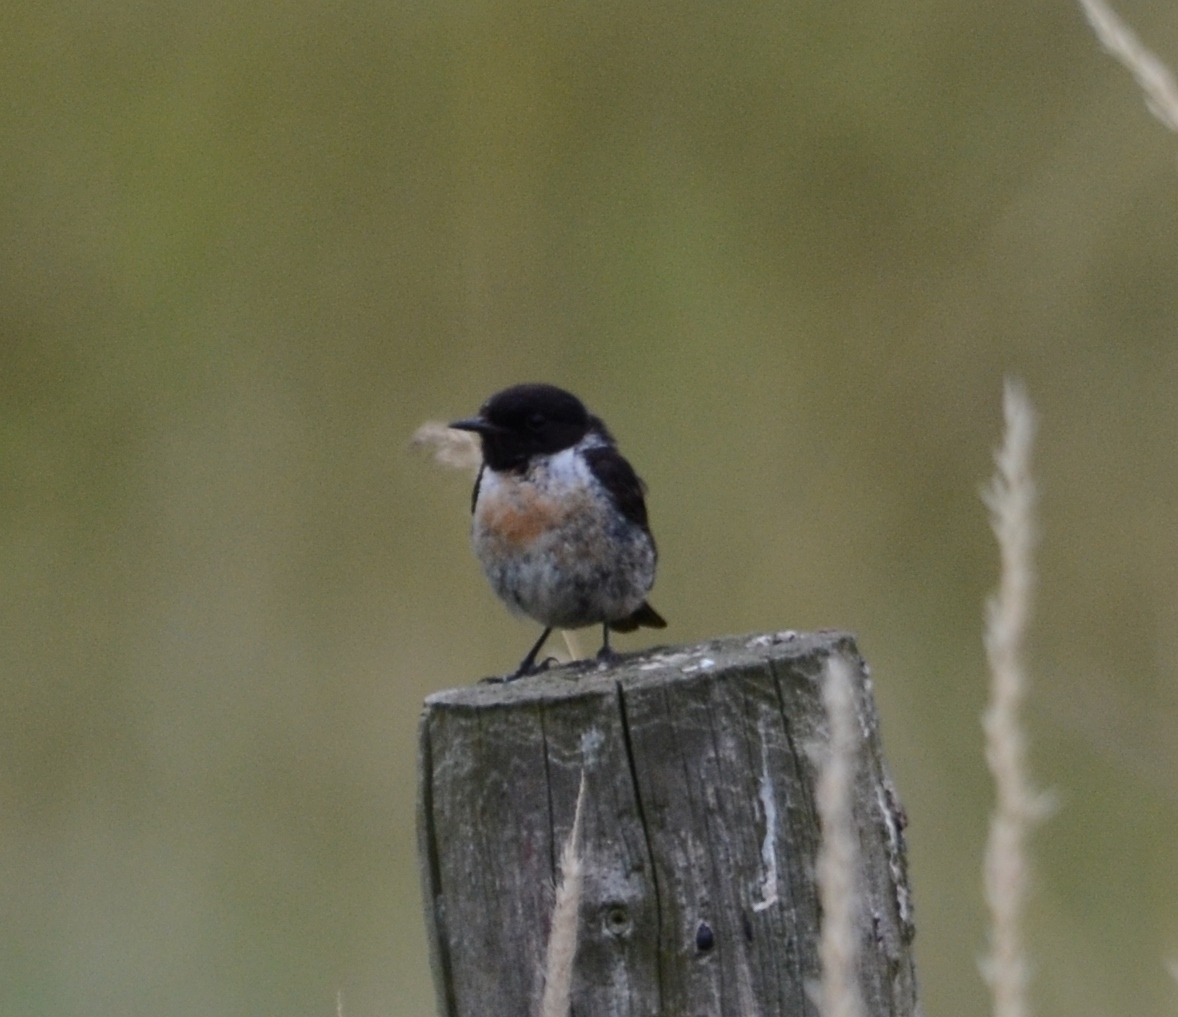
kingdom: Animalia
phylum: Chordata
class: Aves
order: Passeriformes
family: Muscicapidae
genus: Saxicola
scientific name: Saxicola rubicola
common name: European stonechat
